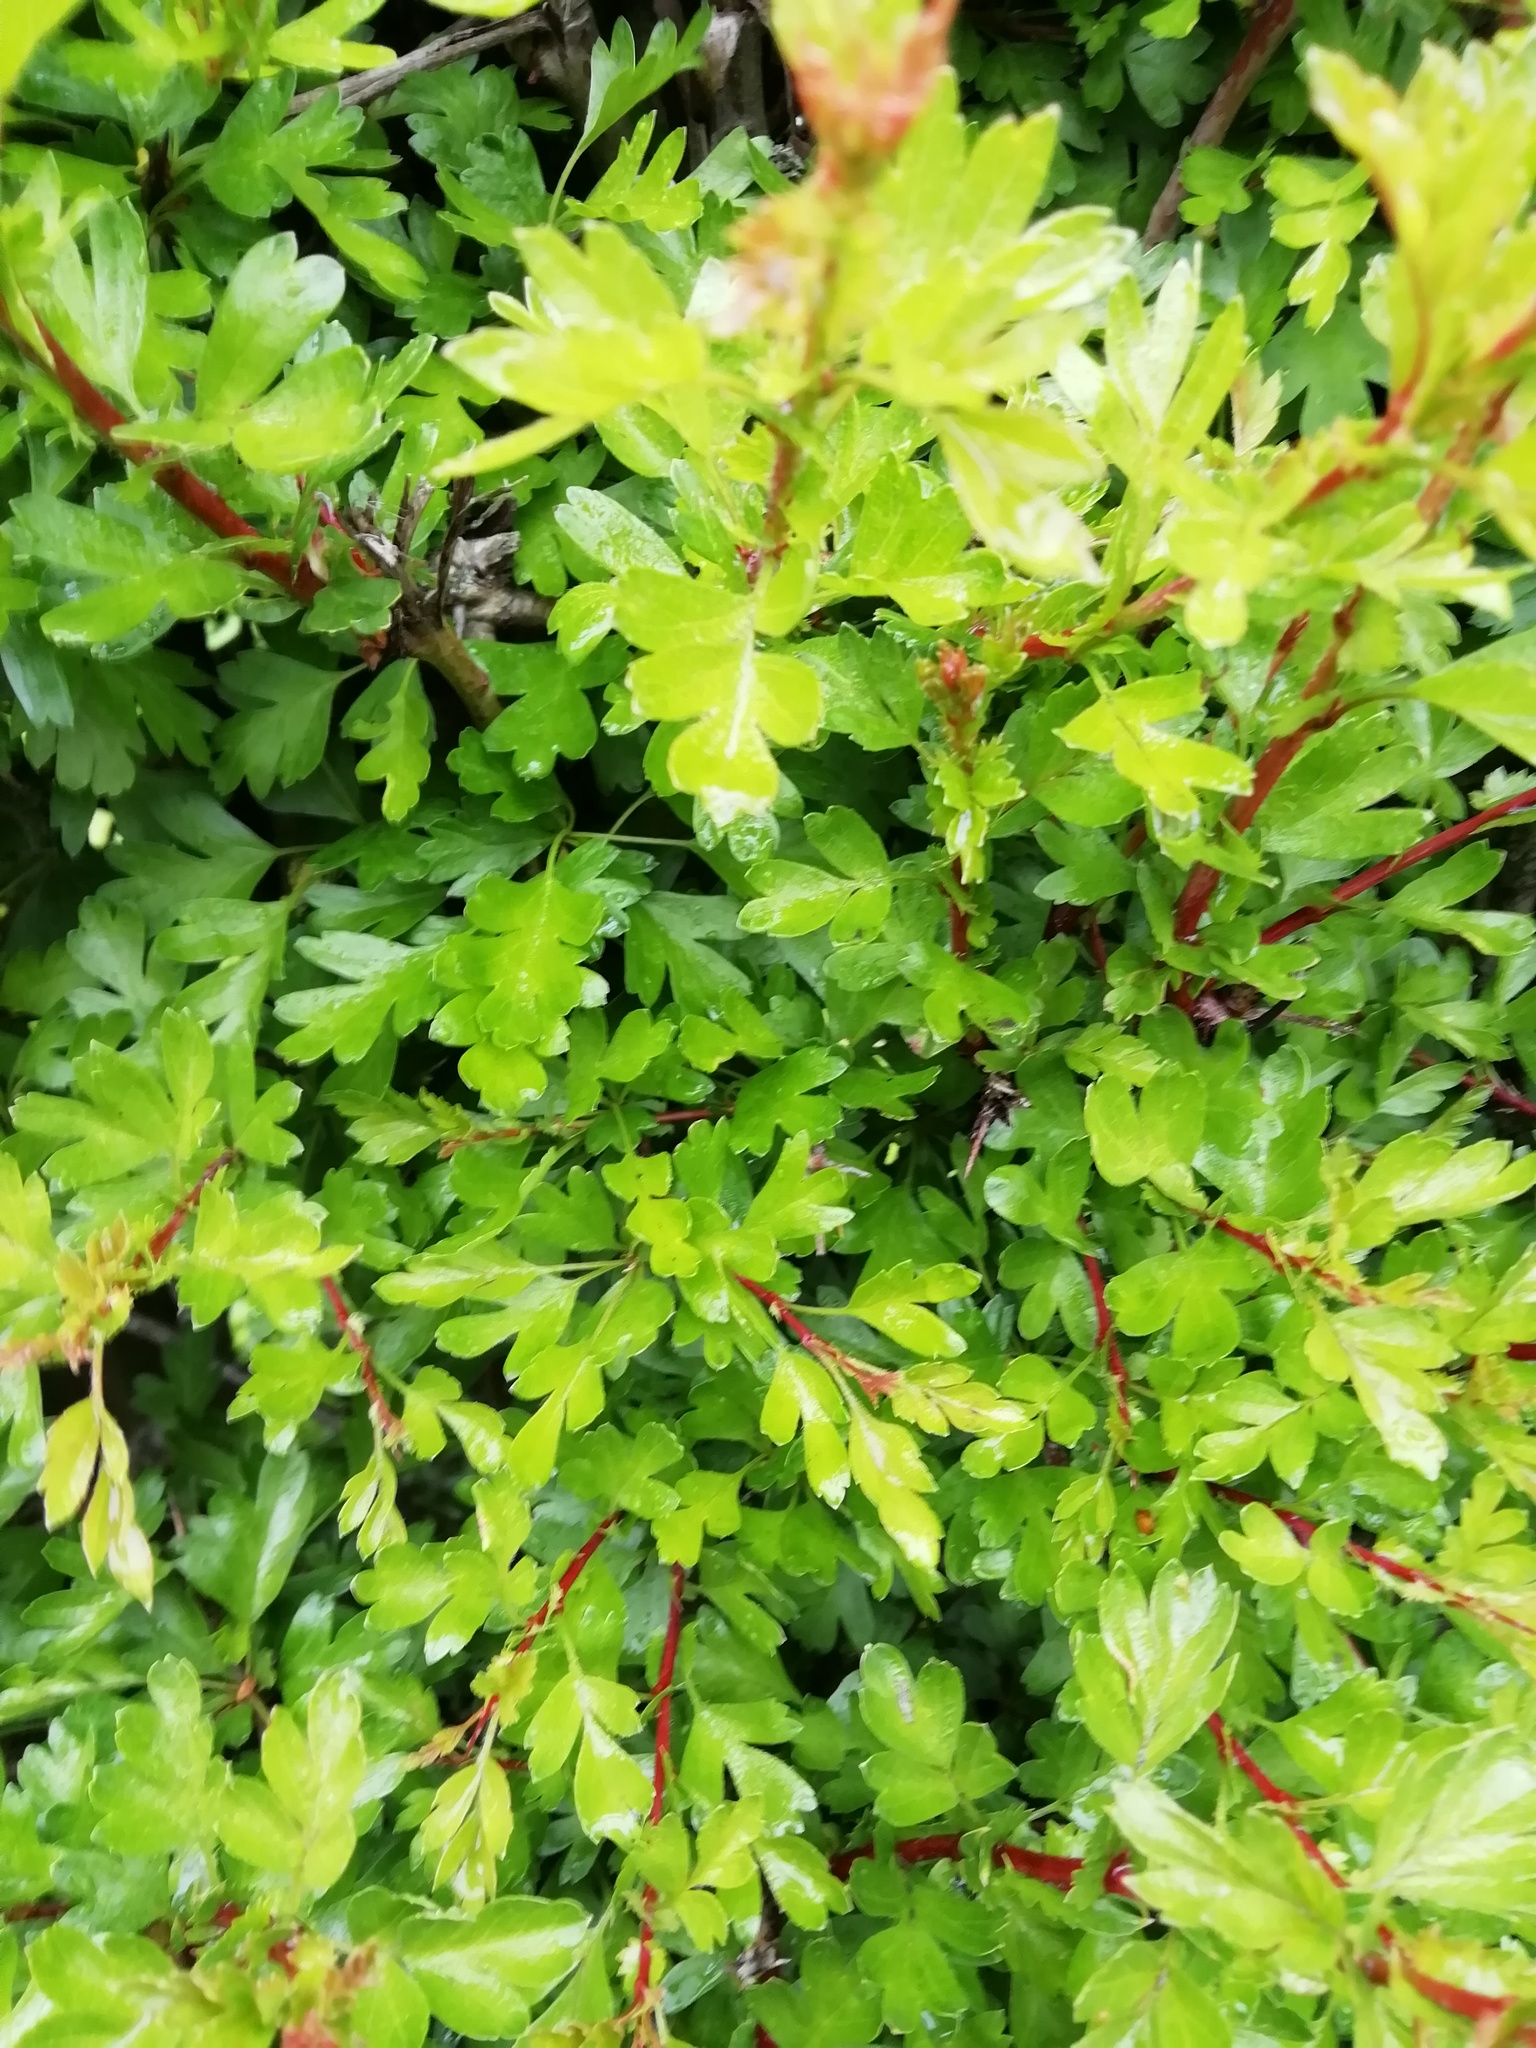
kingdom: Plantae
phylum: Tracheophyta
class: Magnoliopsida
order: Rosales
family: Rosaceae
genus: Crataegus
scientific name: Crataegus monogyna
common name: Hawthorn
